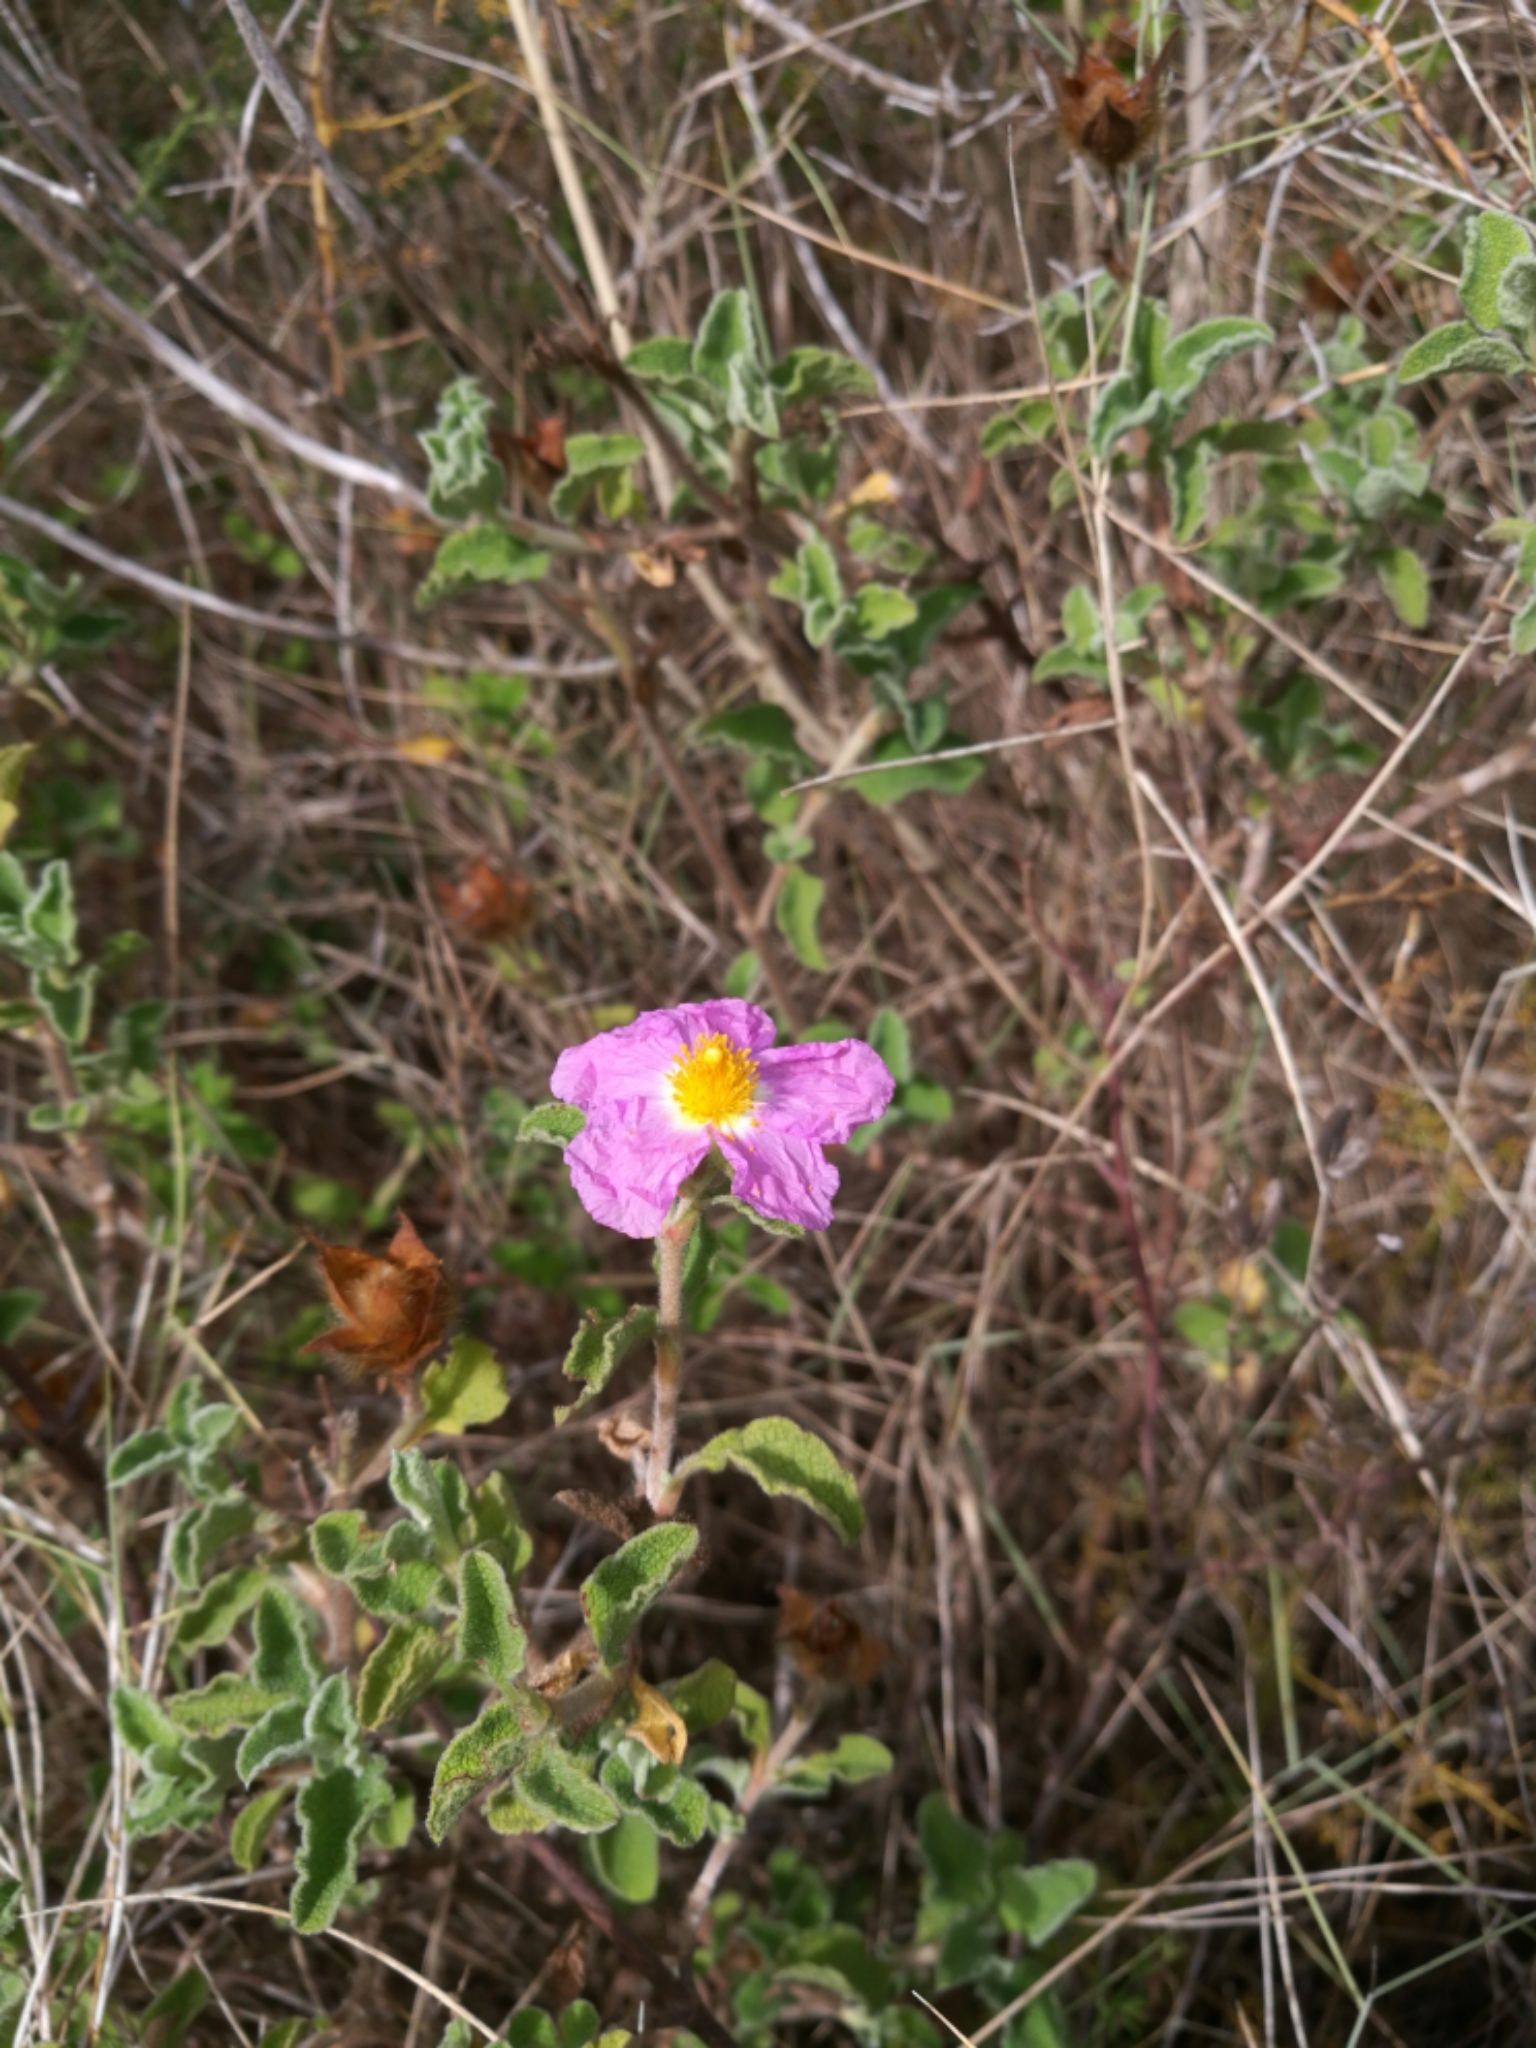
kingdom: Plantae
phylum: Tracheophyta
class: Magnoliopsida
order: Malvales
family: Cistaceae
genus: Cistus
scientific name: Cistus creticus
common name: Cretan rockrose
